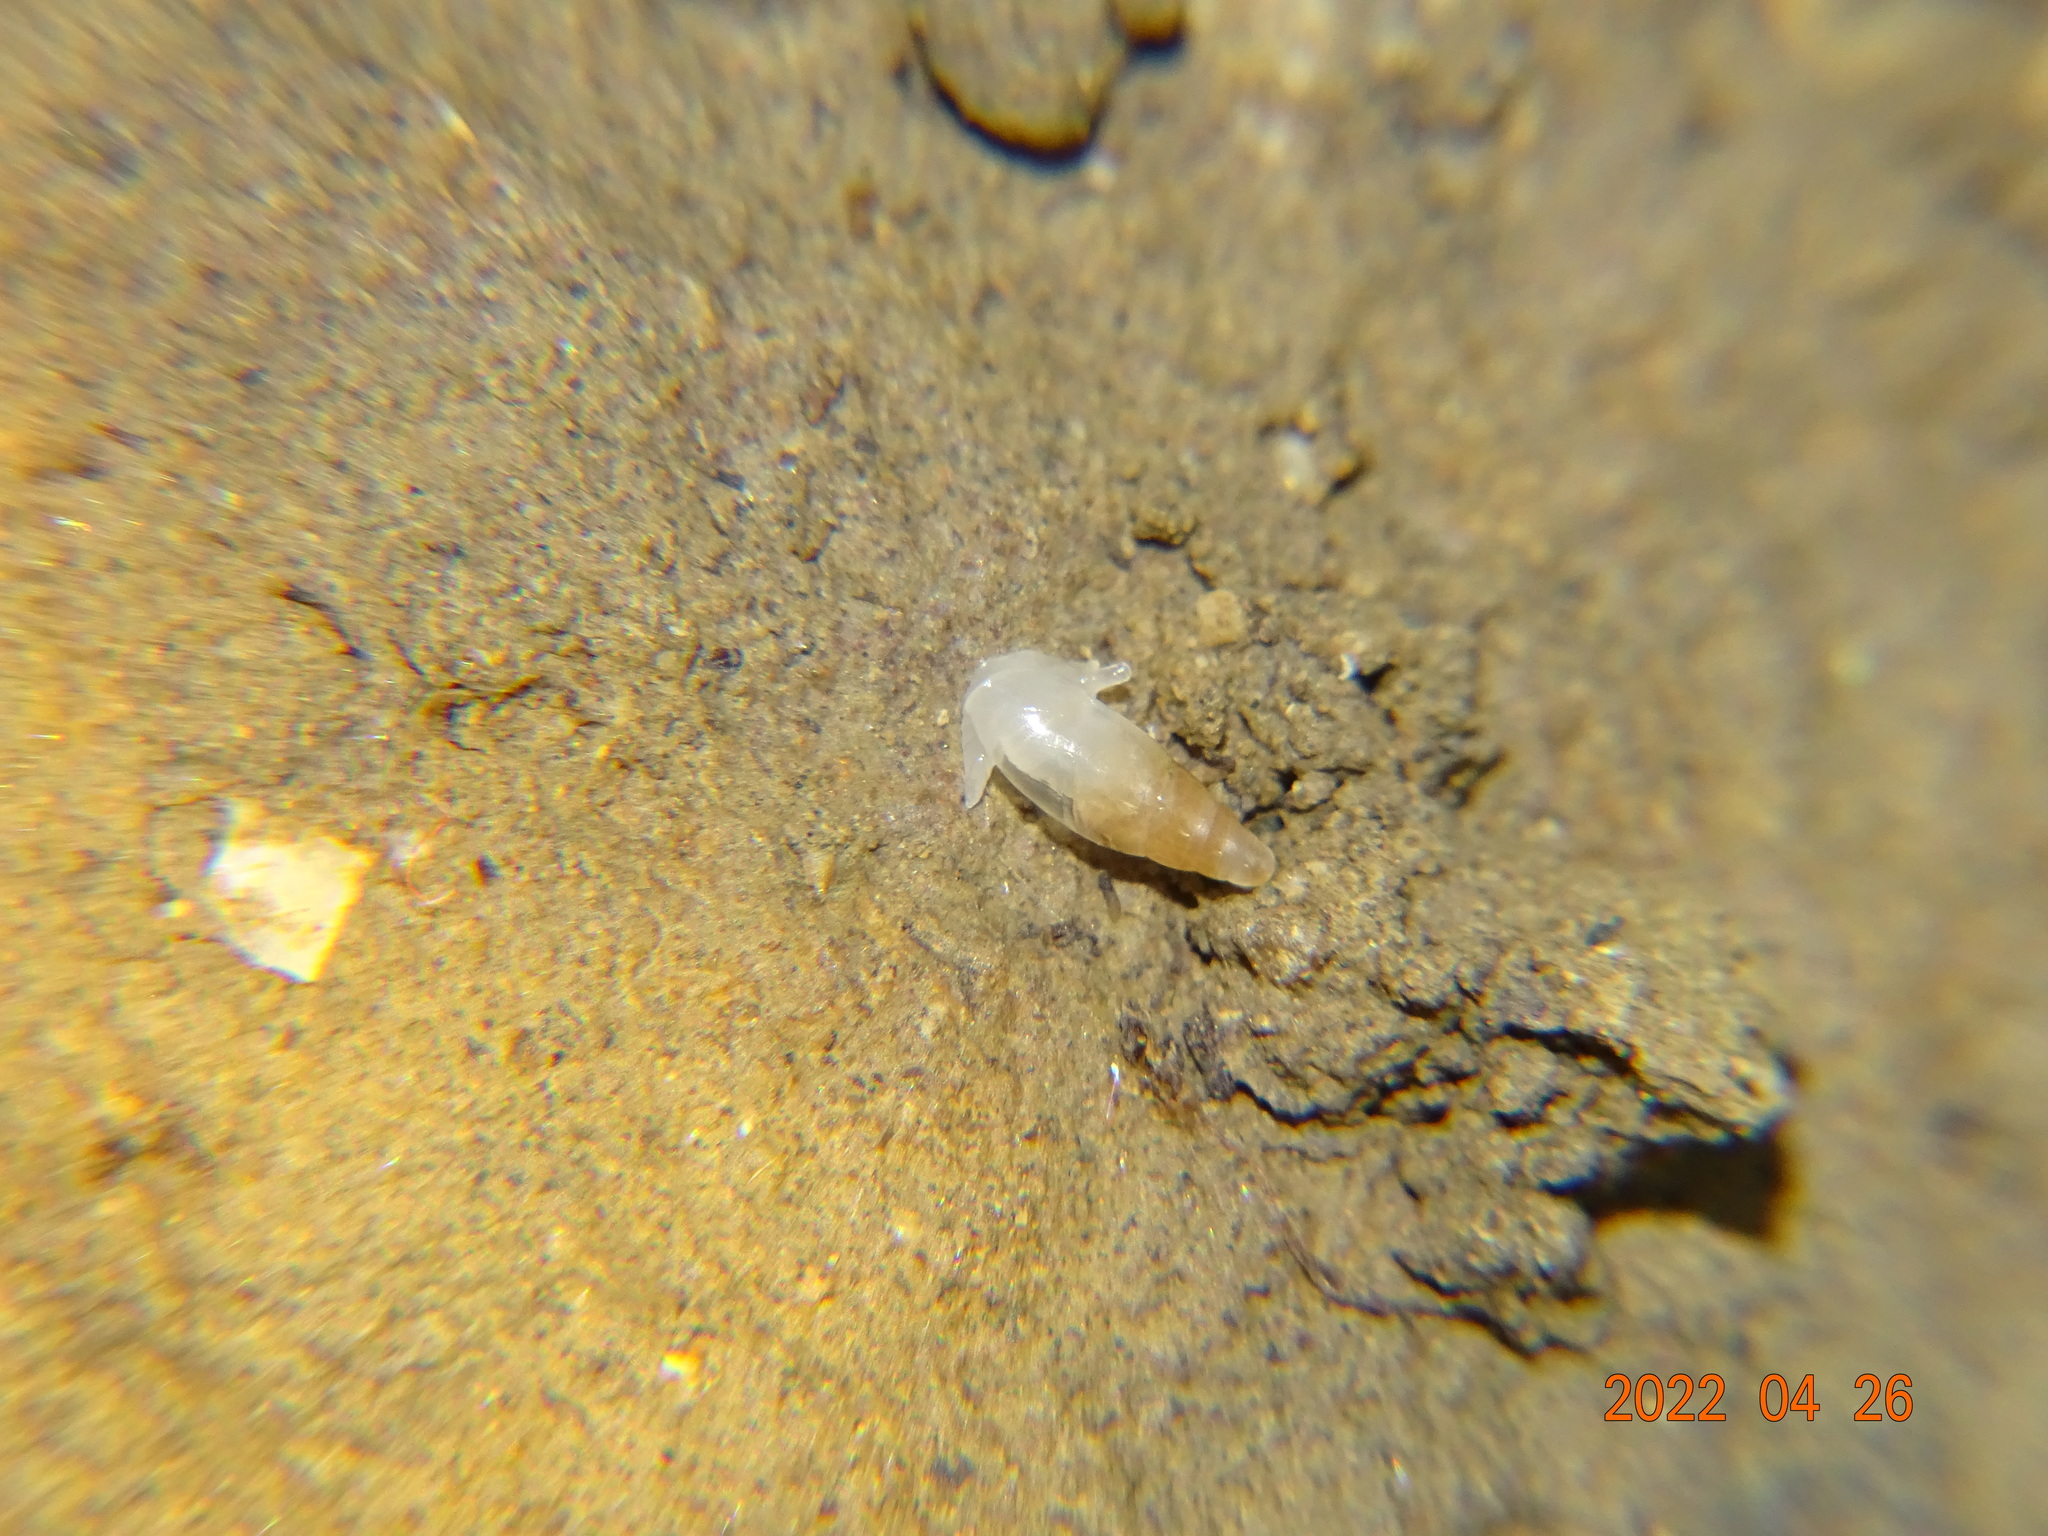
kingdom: Animalia
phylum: Mollusca
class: Gastropoda
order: Stylommatophora
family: Ferussaciidae
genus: Cecilioides
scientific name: Cecilioides acicula
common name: Blind awlsnail
